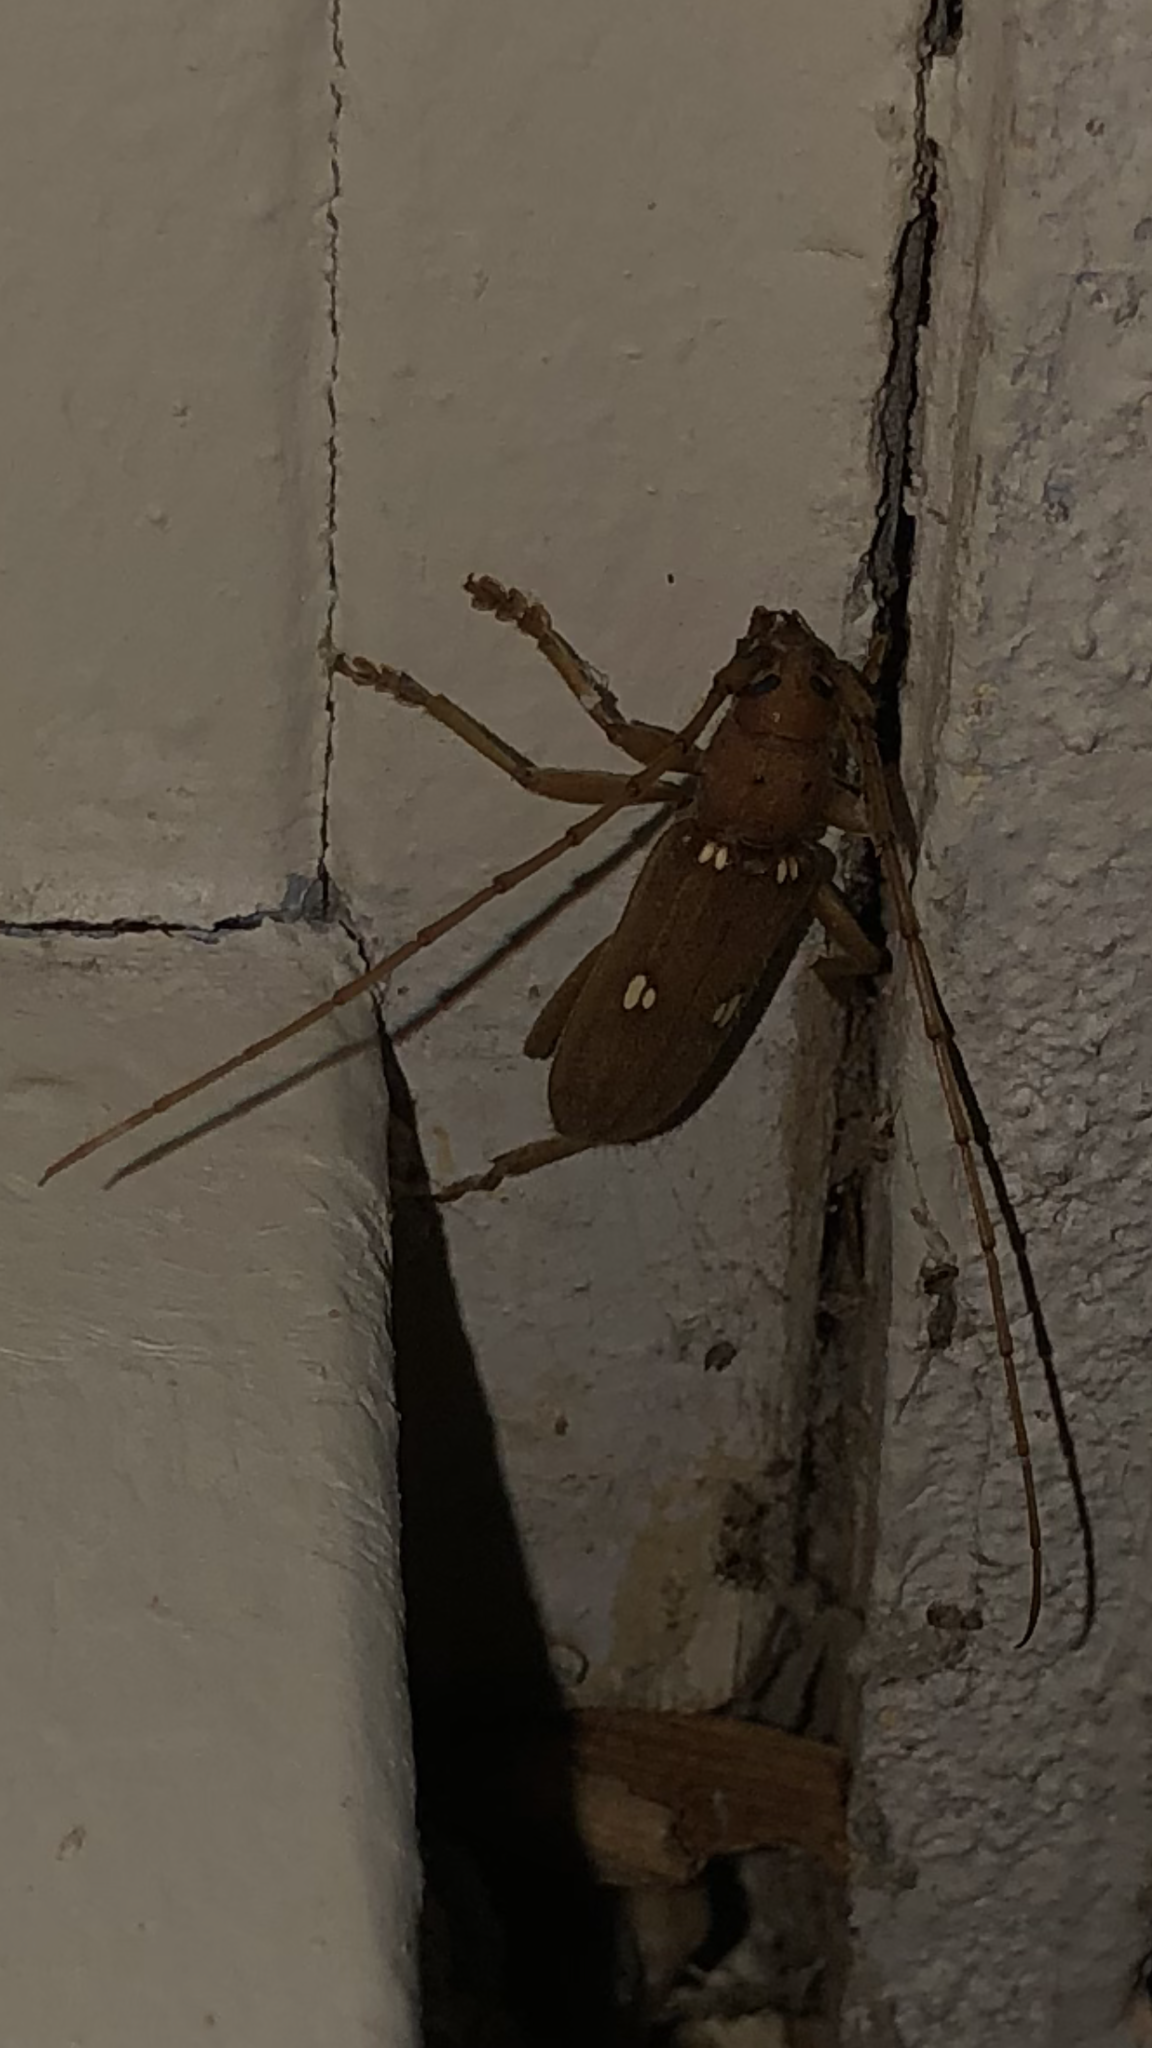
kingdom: Animalia
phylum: Arthropoda
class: Insecta
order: Coleoptera
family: Cerambycidae
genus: Eburia
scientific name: Eburia quadrigeminata
